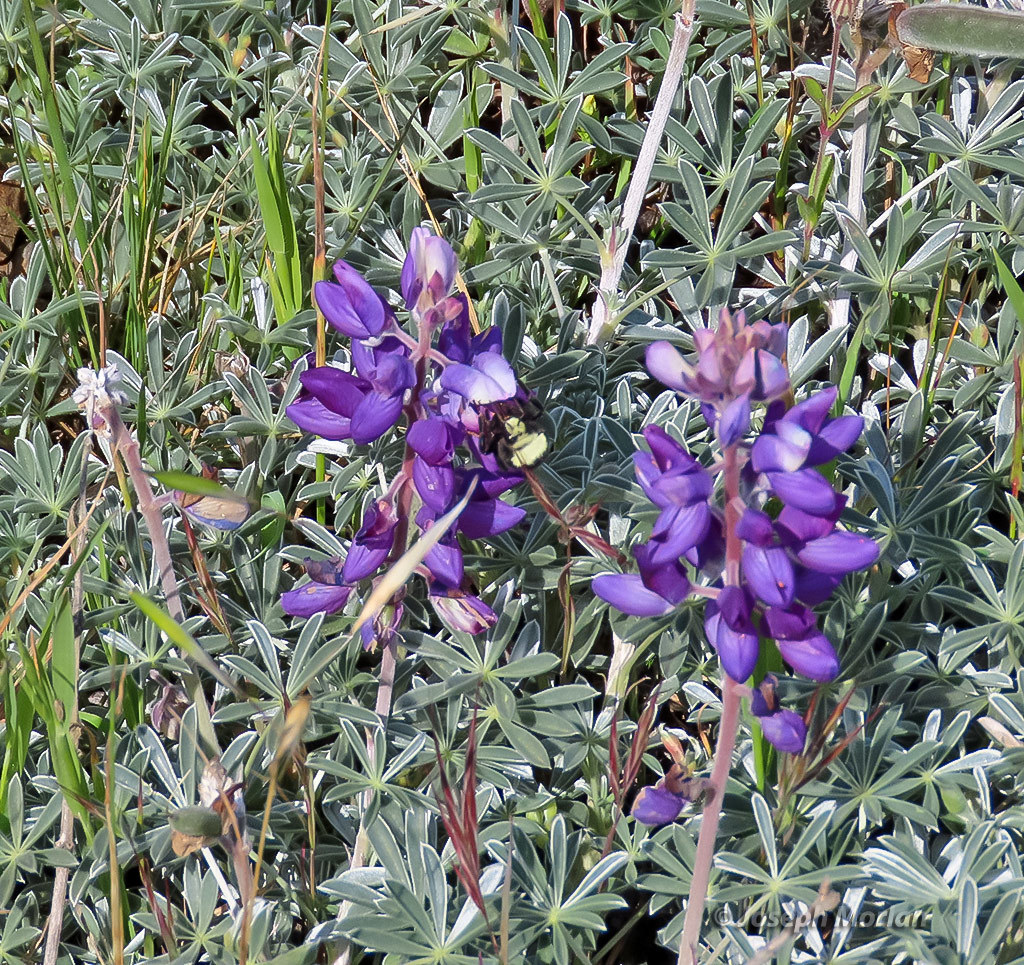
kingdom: Plantae
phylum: Tracheophyta
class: Magnoliopsida
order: Fabales
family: Fabaceae
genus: Lupinus
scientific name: Lupinus albifrons
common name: Foothill lupine
